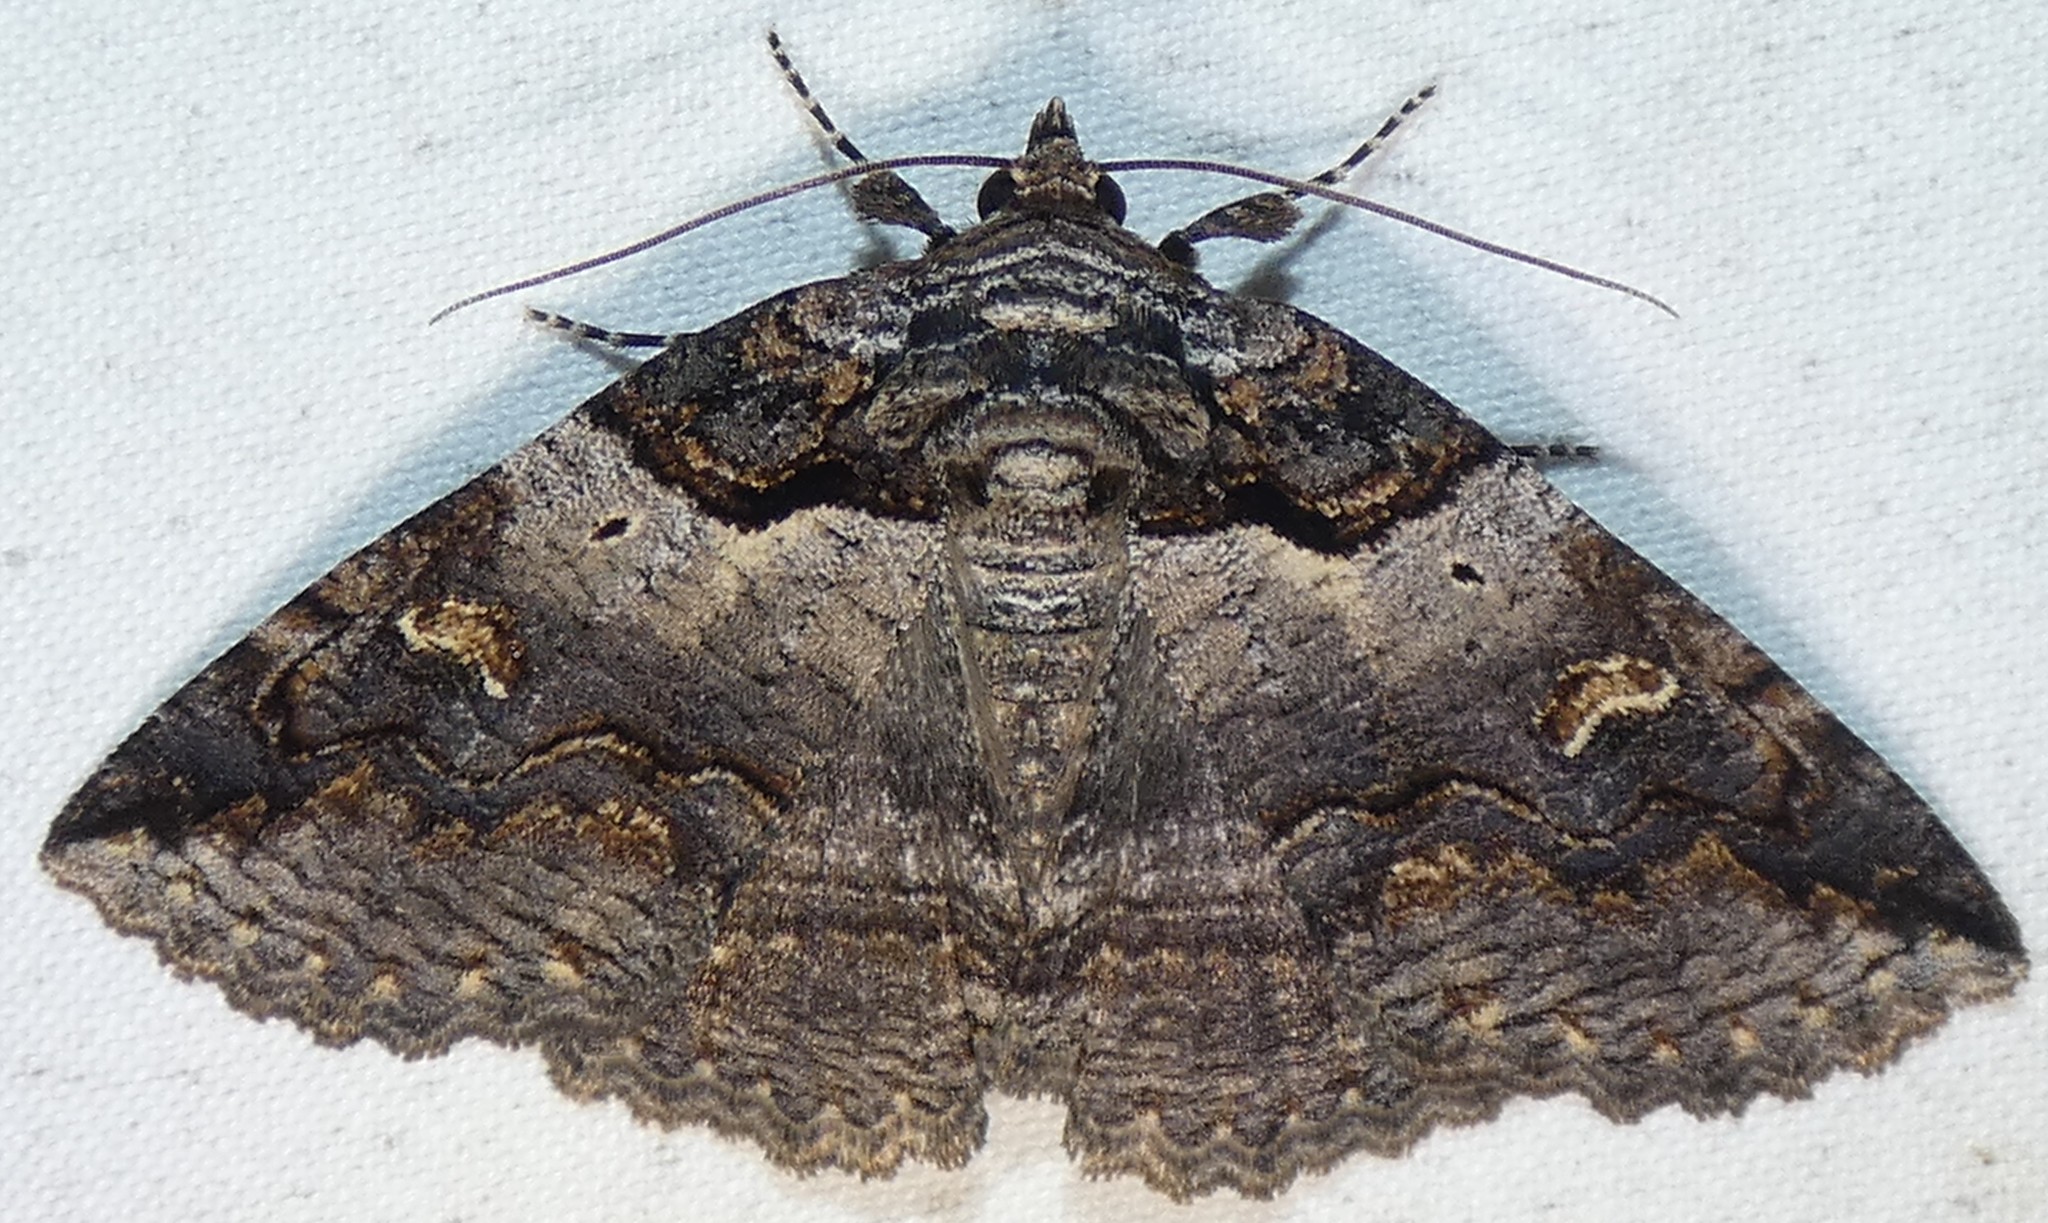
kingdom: Animalia
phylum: Arthropoda
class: Insecta
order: Lepidoptera
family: Erebidae
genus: Zale
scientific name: Zale intenta
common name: Intent zale moth
